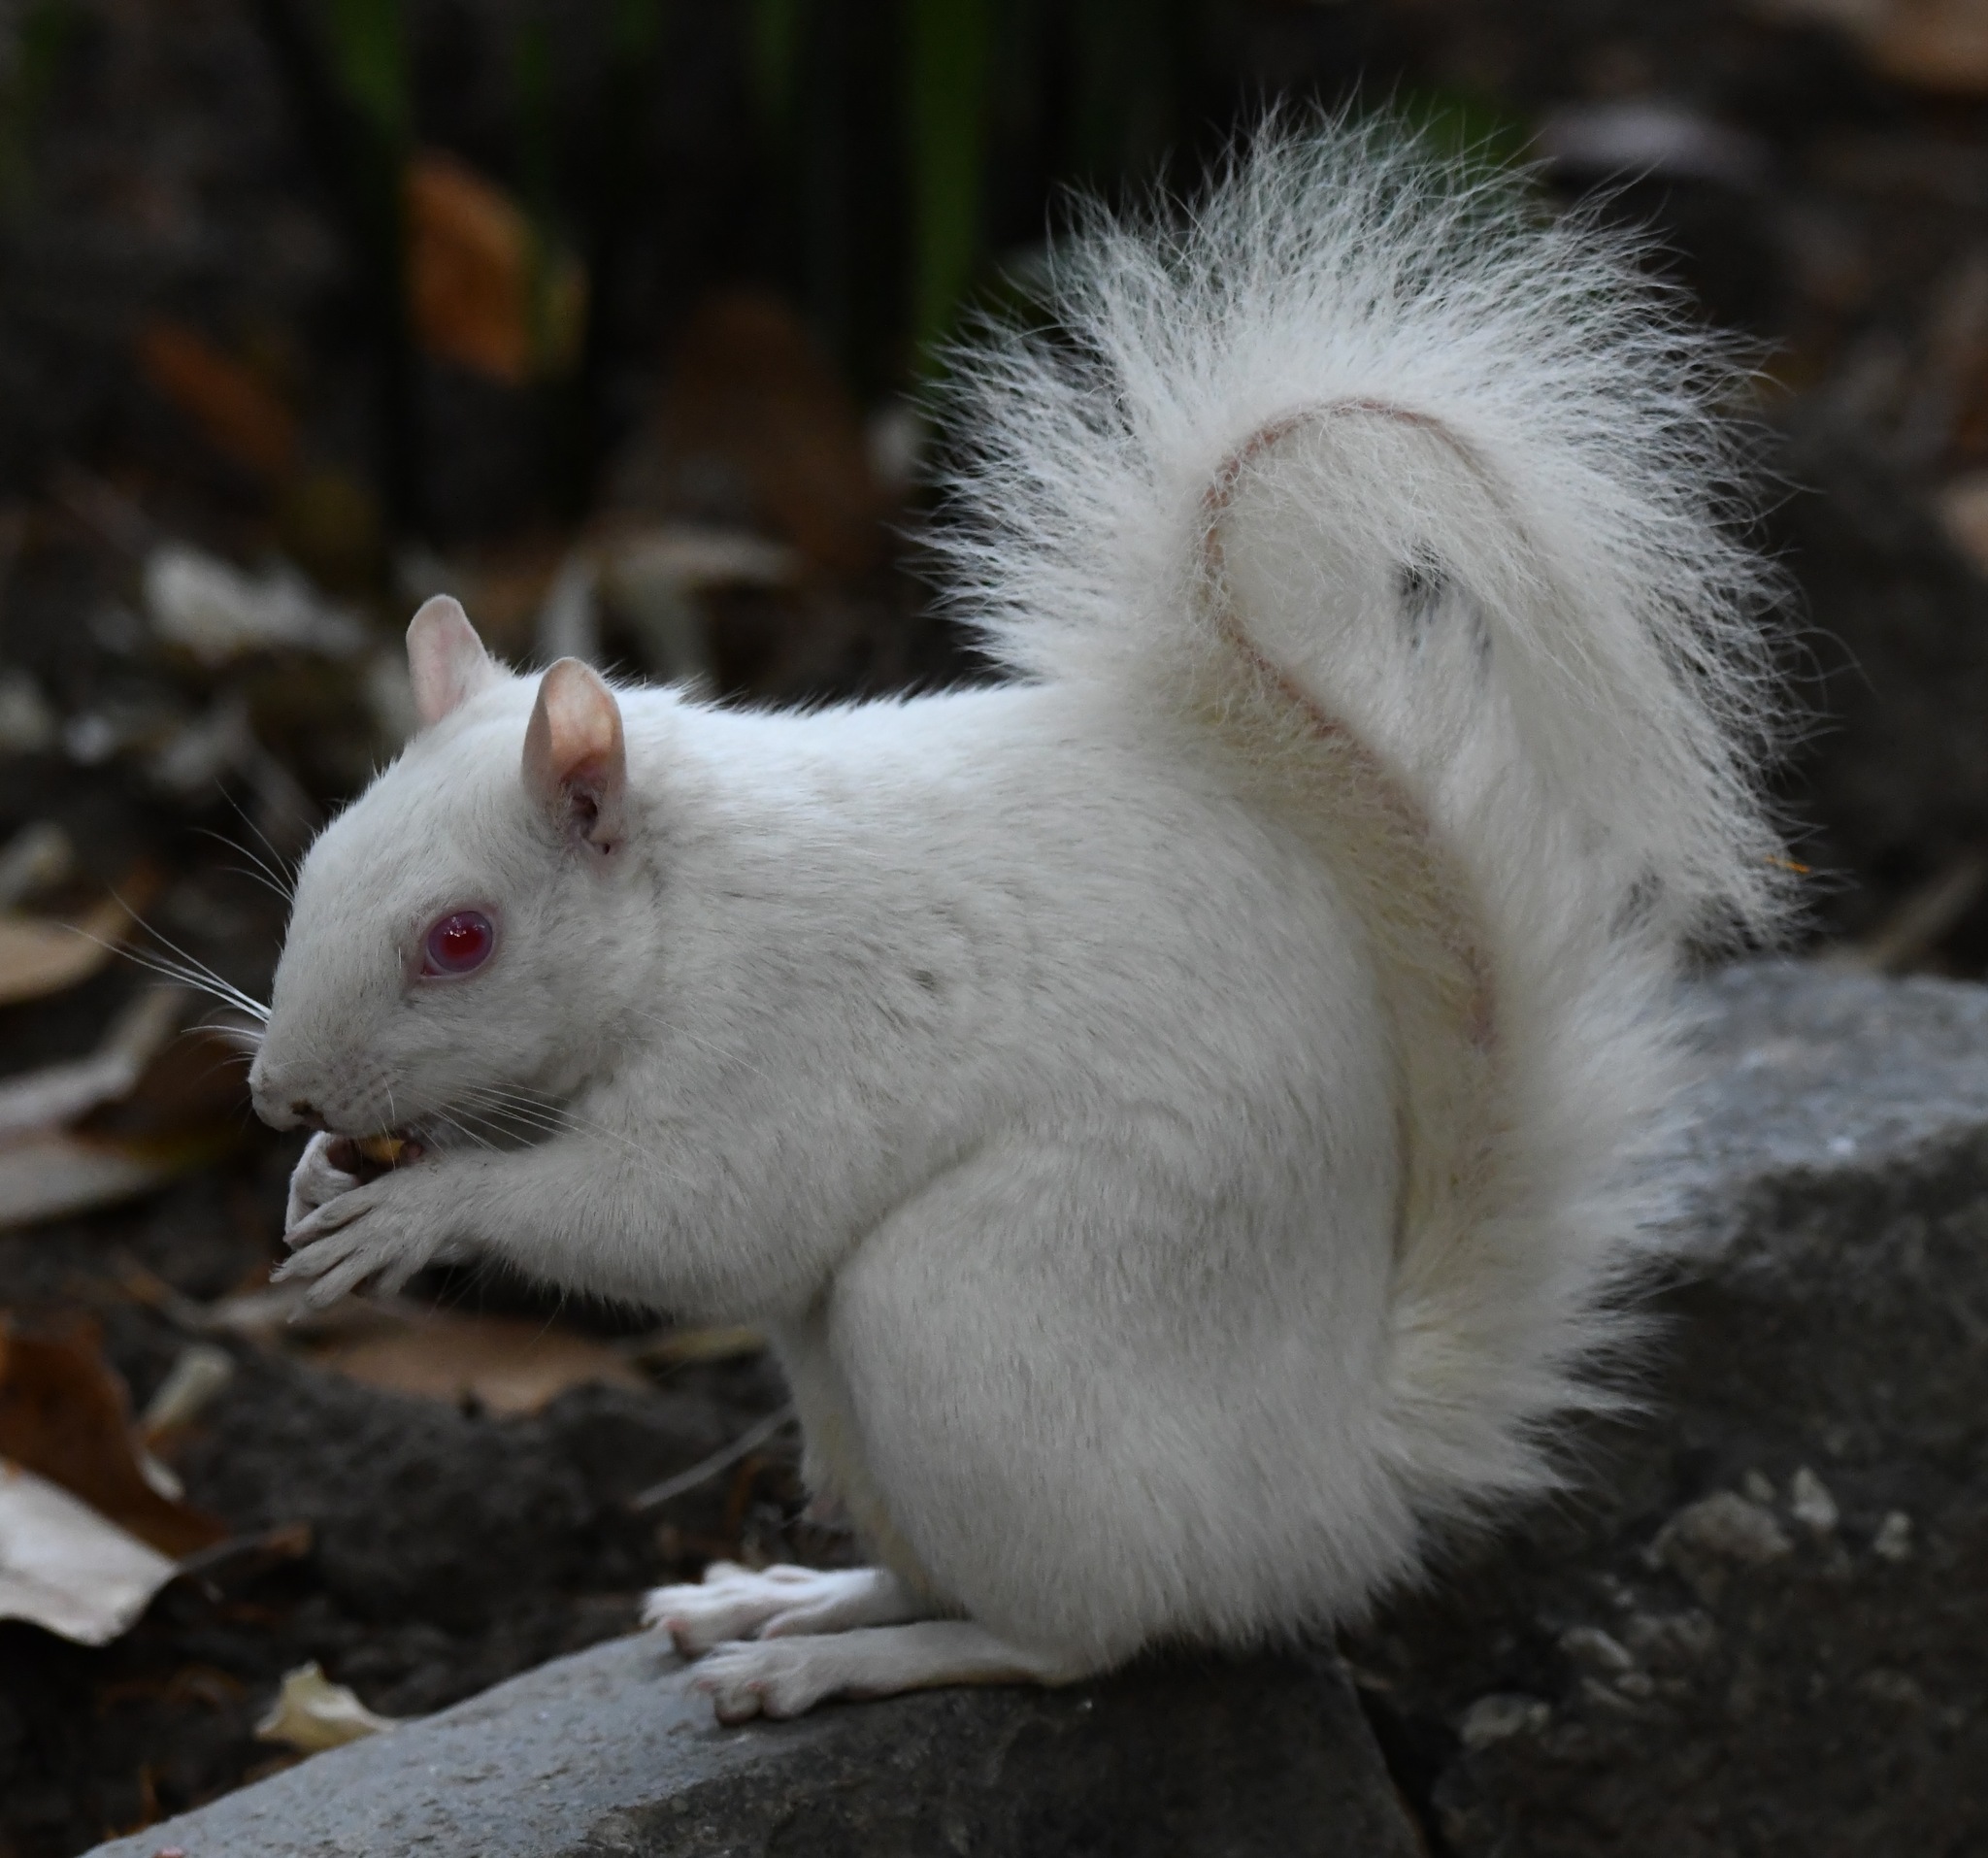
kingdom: Animalia
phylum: Chordata
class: Mammalia
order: Rodentia
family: Sciuridae
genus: Sciurus
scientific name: Sciurus carolinensis
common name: Eastern gray squirrel
